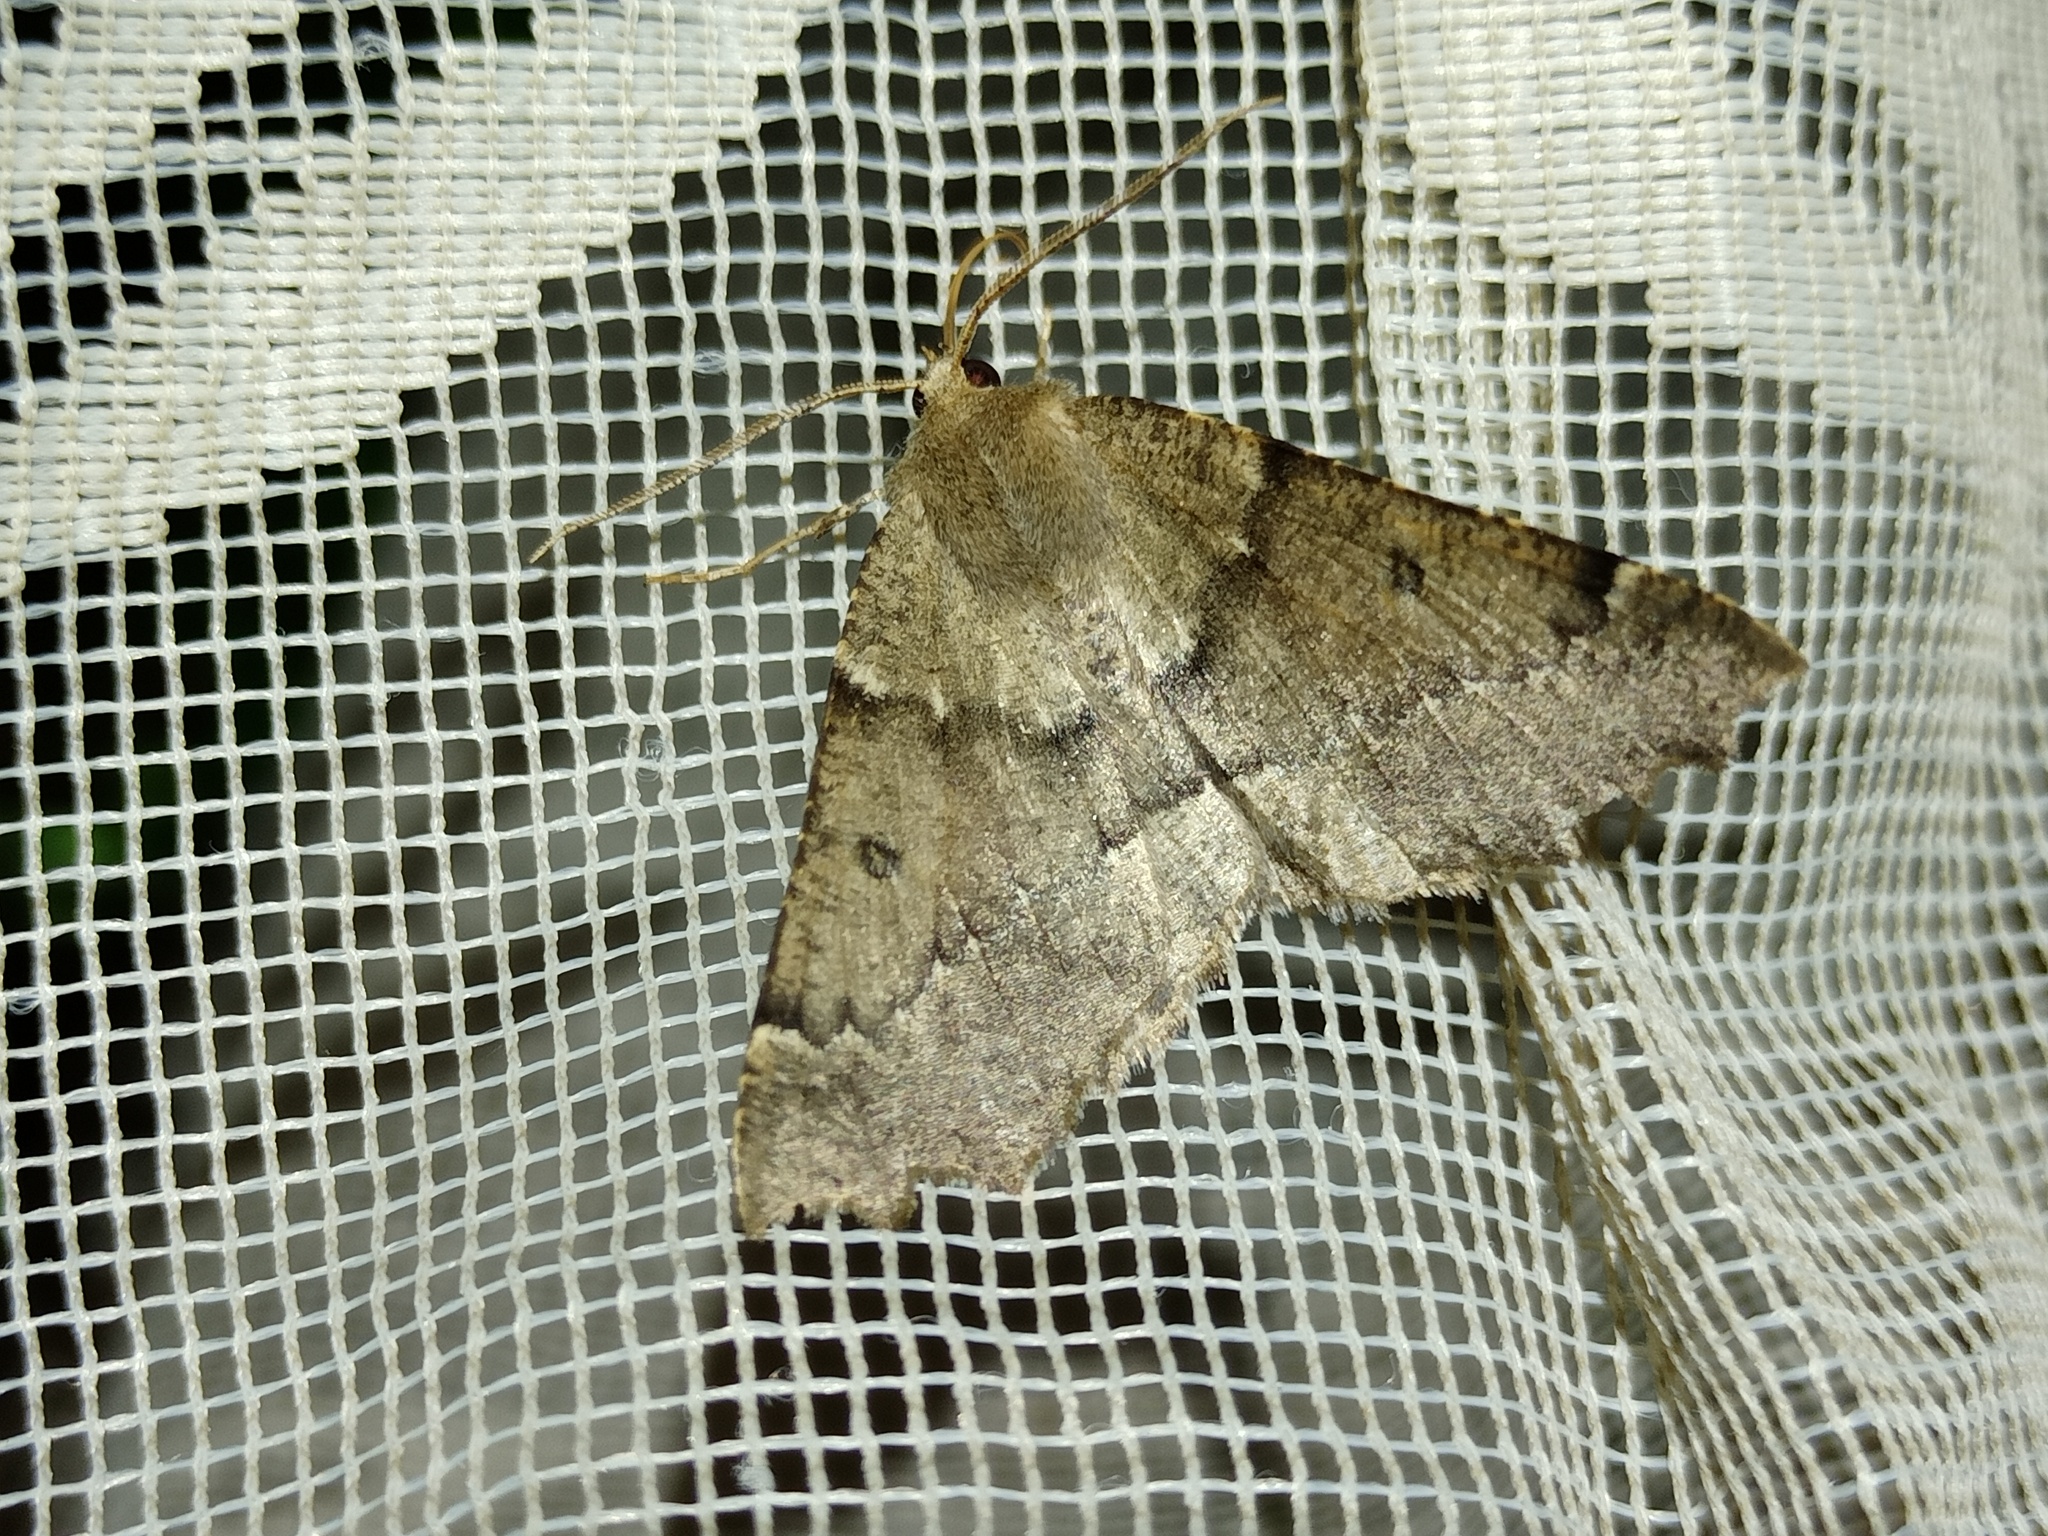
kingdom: Animalia
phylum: Arthropoda
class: Insecta
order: Lepidoptera
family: Geometridae
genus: Odontopera
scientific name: Odontopera bidentata
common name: Scalloped hazel
